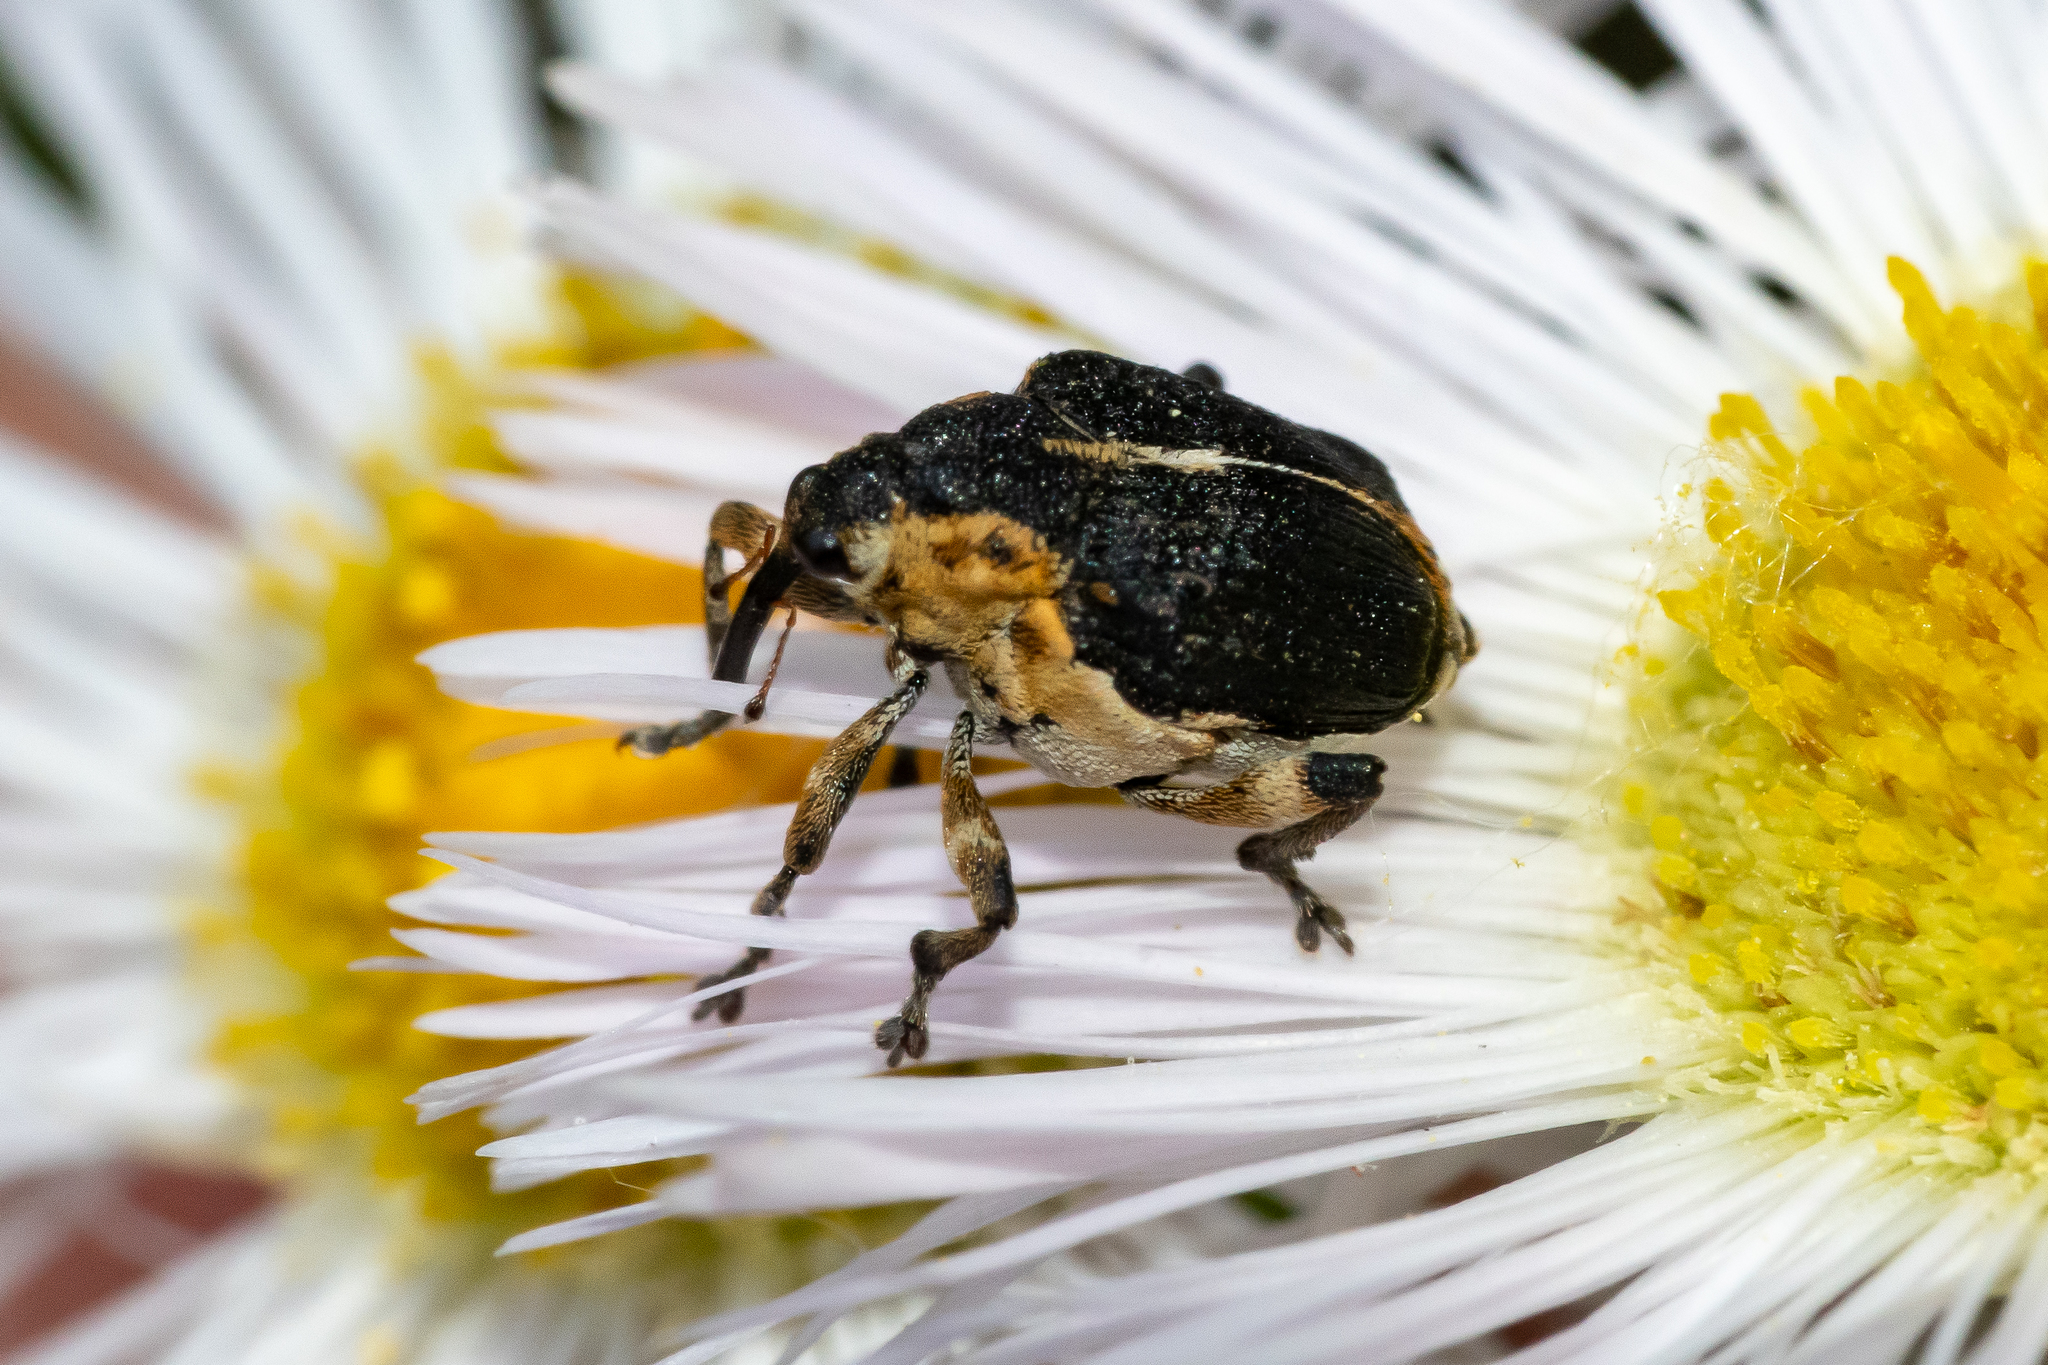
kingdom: Animalia
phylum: Arthropoda
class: Insecta
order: Coleoptera
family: Curculionidae
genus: Mononychus
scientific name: Mononychus vulpeculus
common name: Iris weevil
